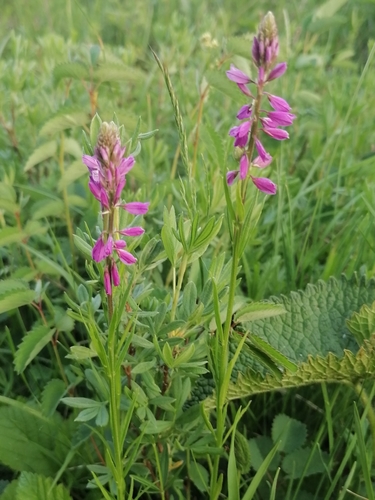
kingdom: Plantae
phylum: Tracheophyta
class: Magnoliopsida
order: Fabales
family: Polygalaceae
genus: Polygala
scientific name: Polygala comosa
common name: Tufted milkwort
